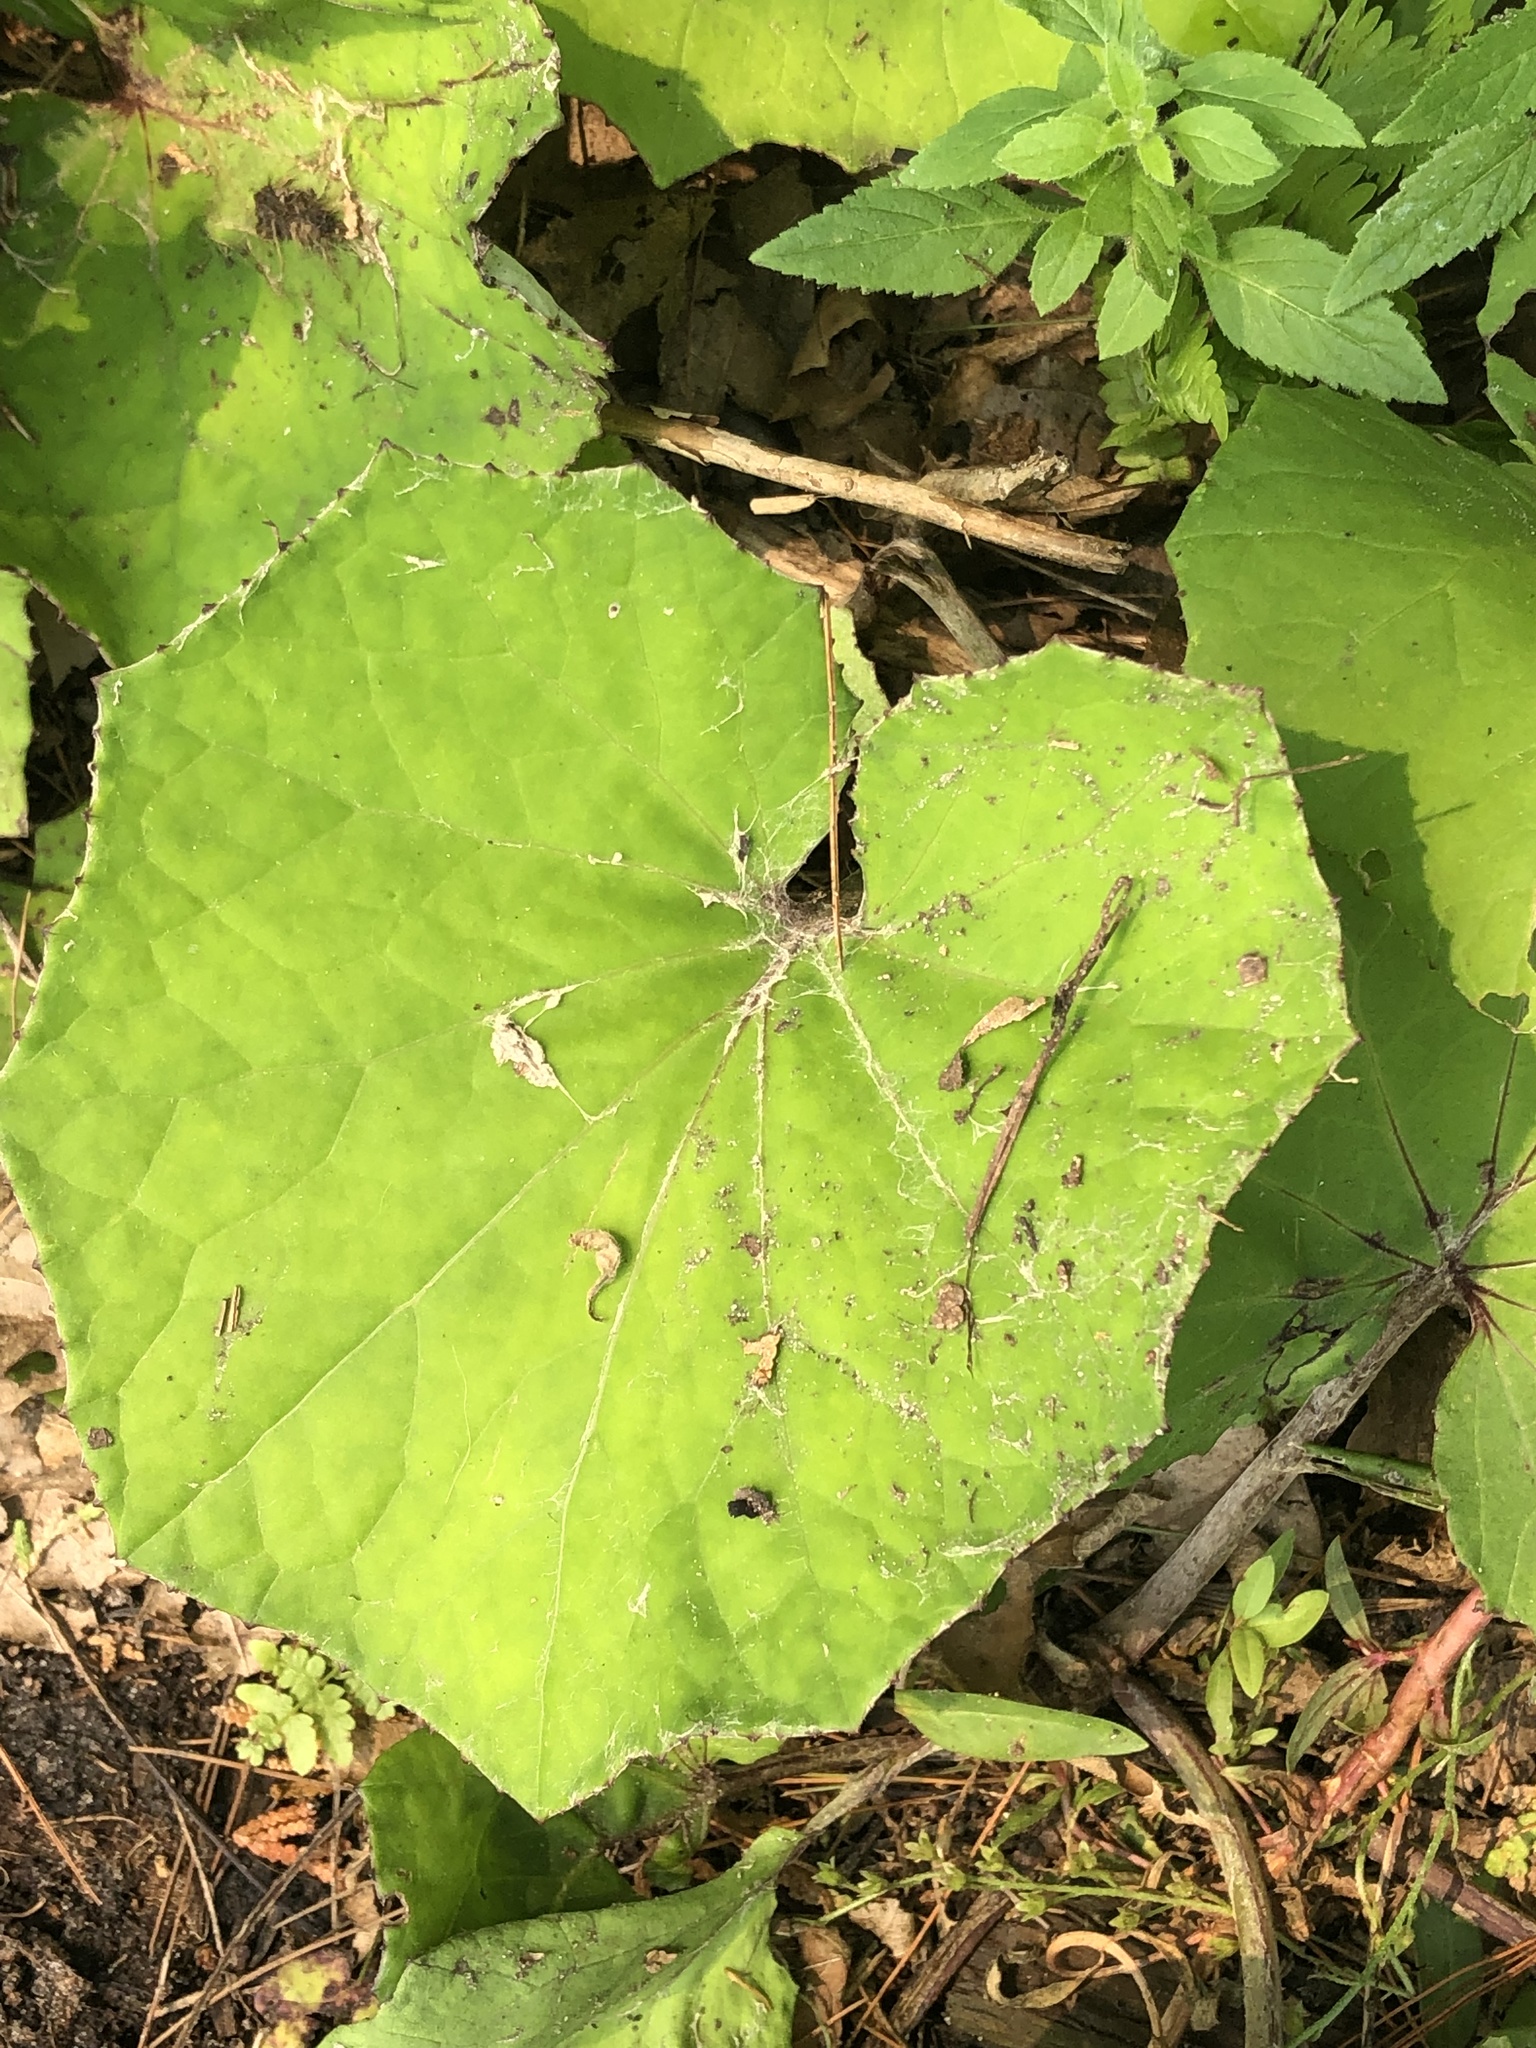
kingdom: Plantae
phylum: Tracheophyta
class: Magnoliopsida
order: Asterales
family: Asteraceae
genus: Tussilago
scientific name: Tussilago farfara
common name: Coltsfoot
